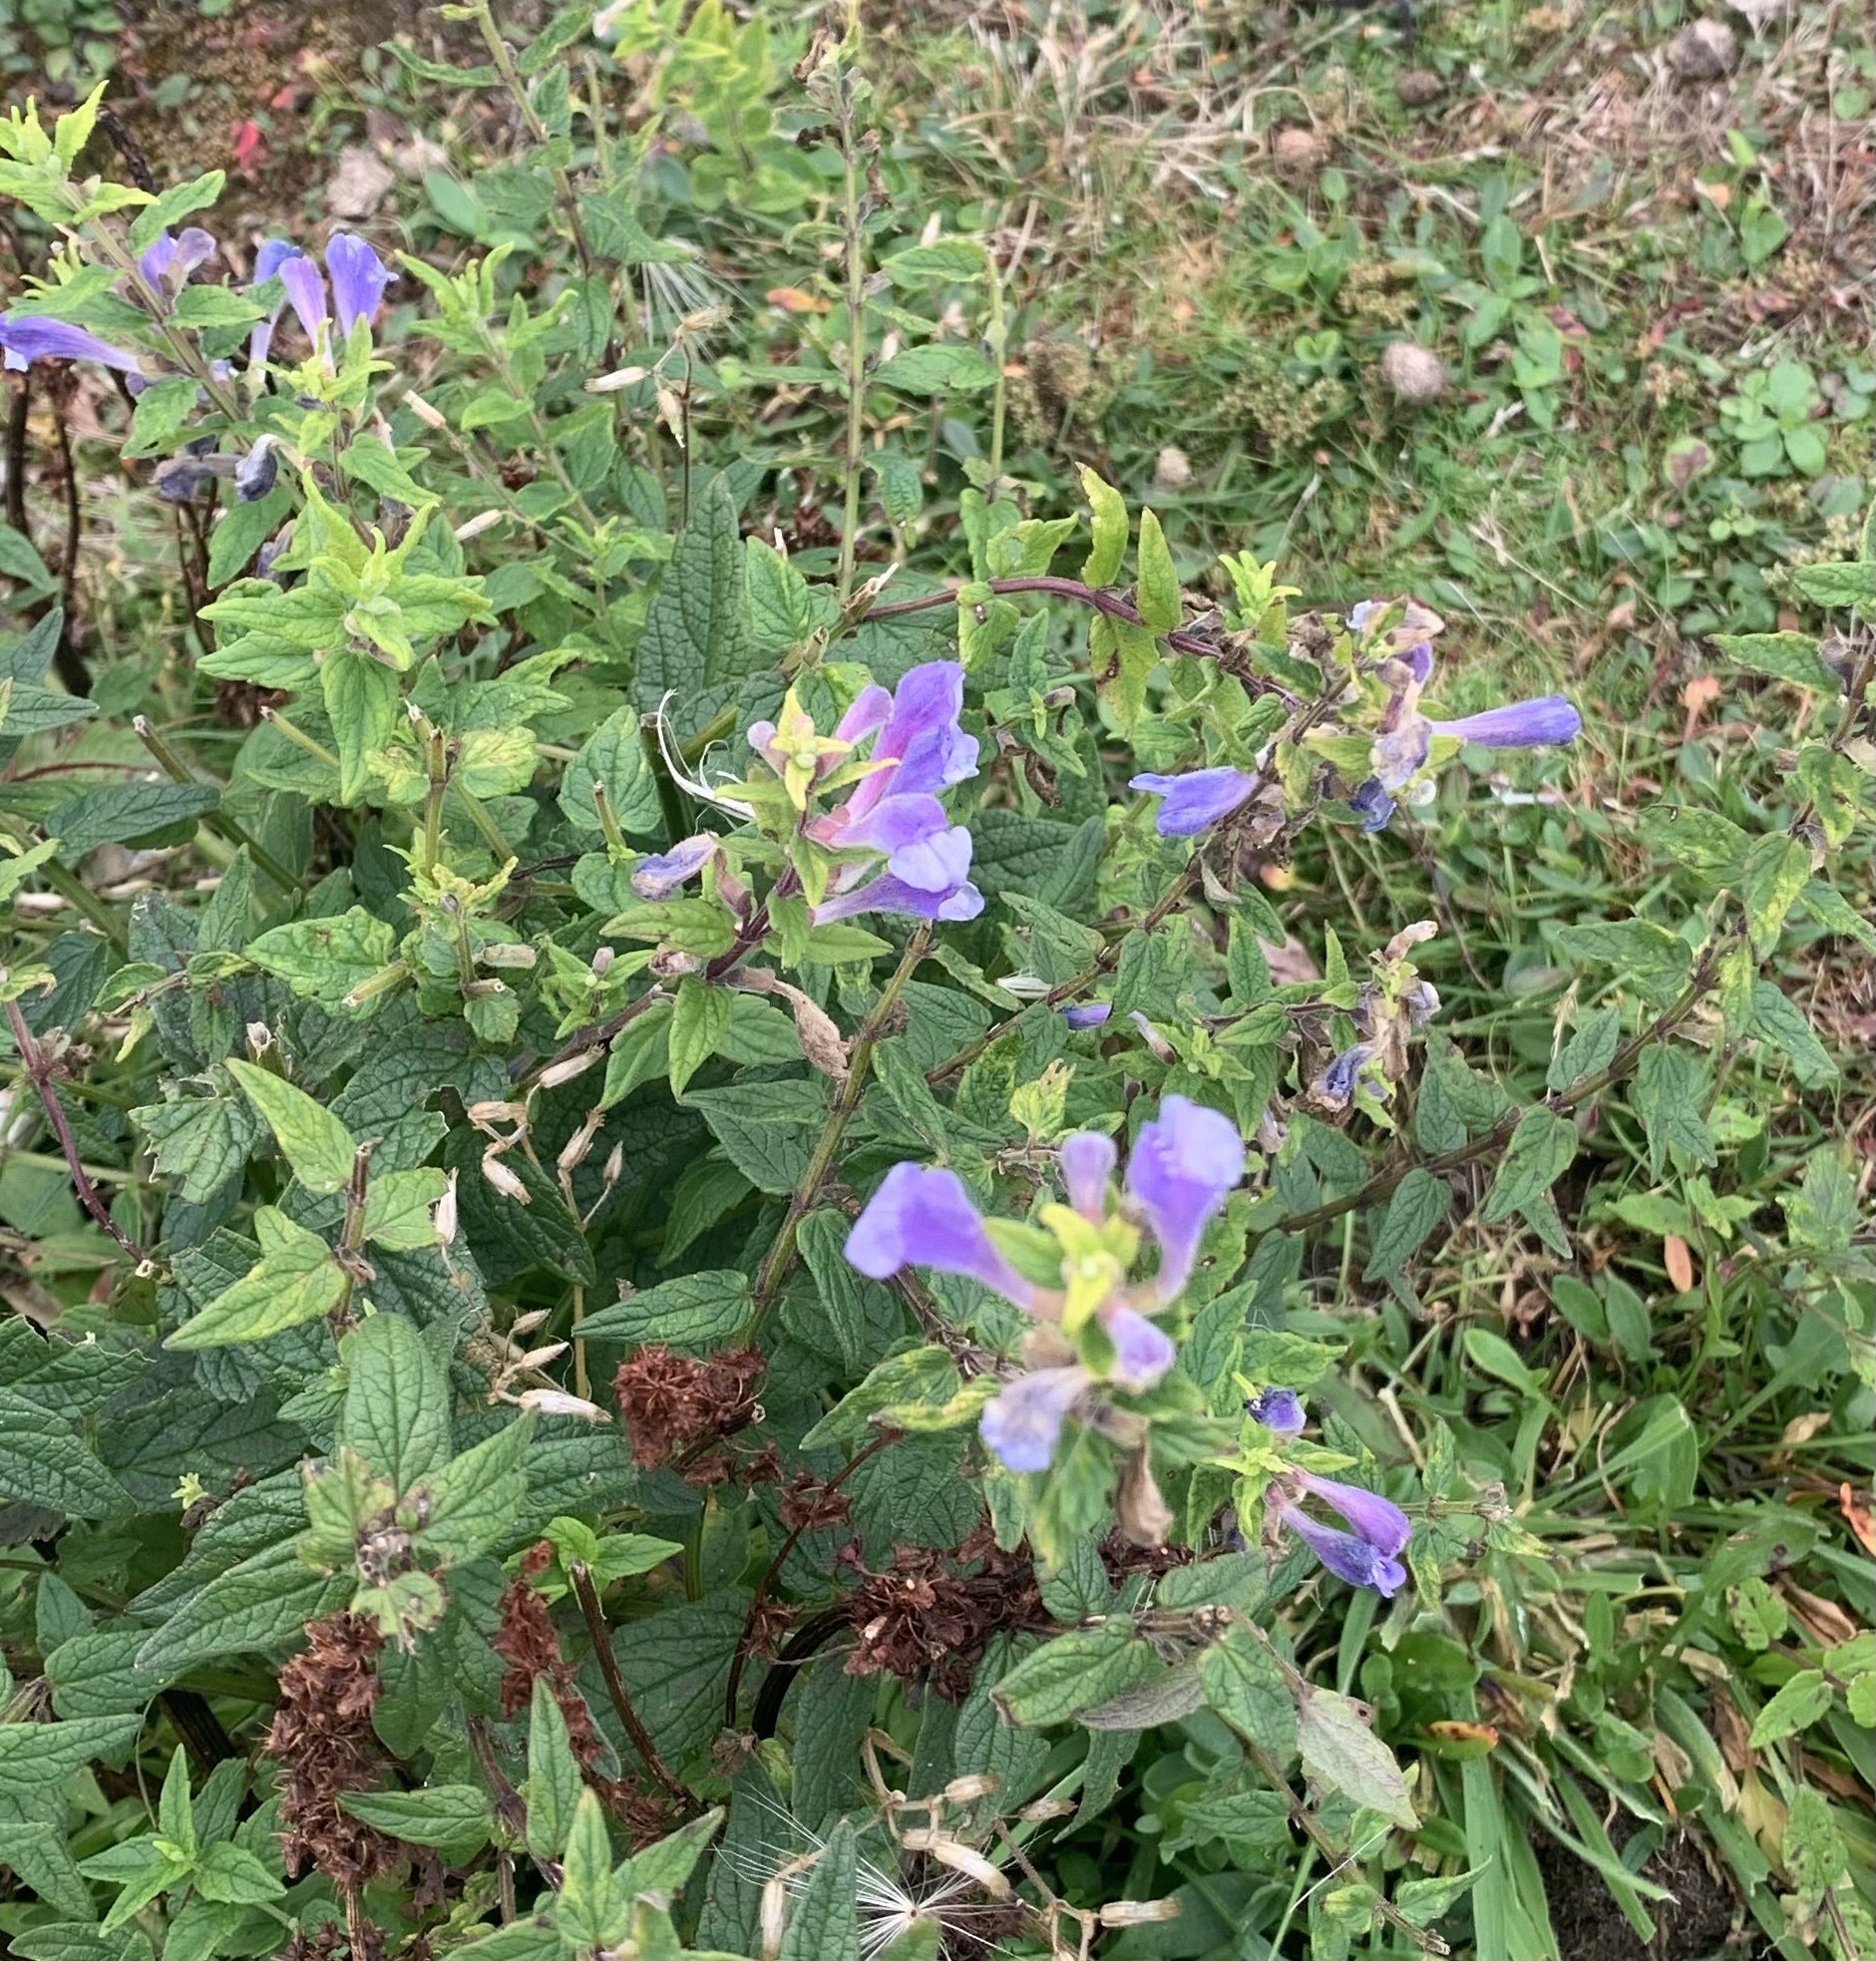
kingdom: Plantae
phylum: Tracheophyta
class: Magnoliopsida
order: Lamiales
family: Lamiaceae
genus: Scutellaria
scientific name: Scutellaria galericulata
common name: Skullcap
